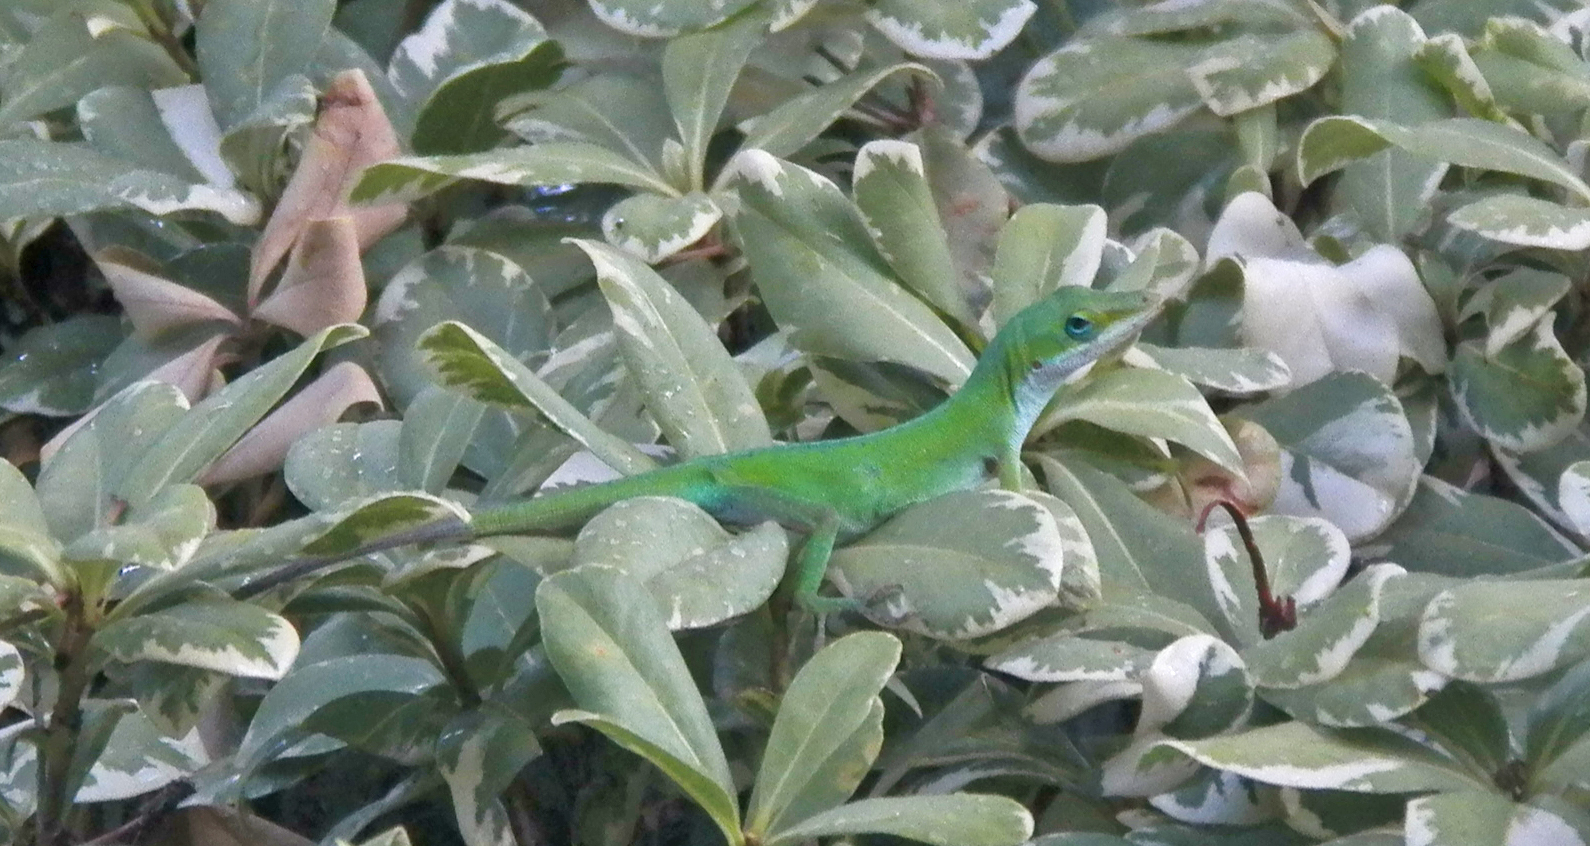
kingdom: Animalia
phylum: Chordata
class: Squamata
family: Dactyloidae
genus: Anolis
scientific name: Anolis carolinensis
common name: Green anole
